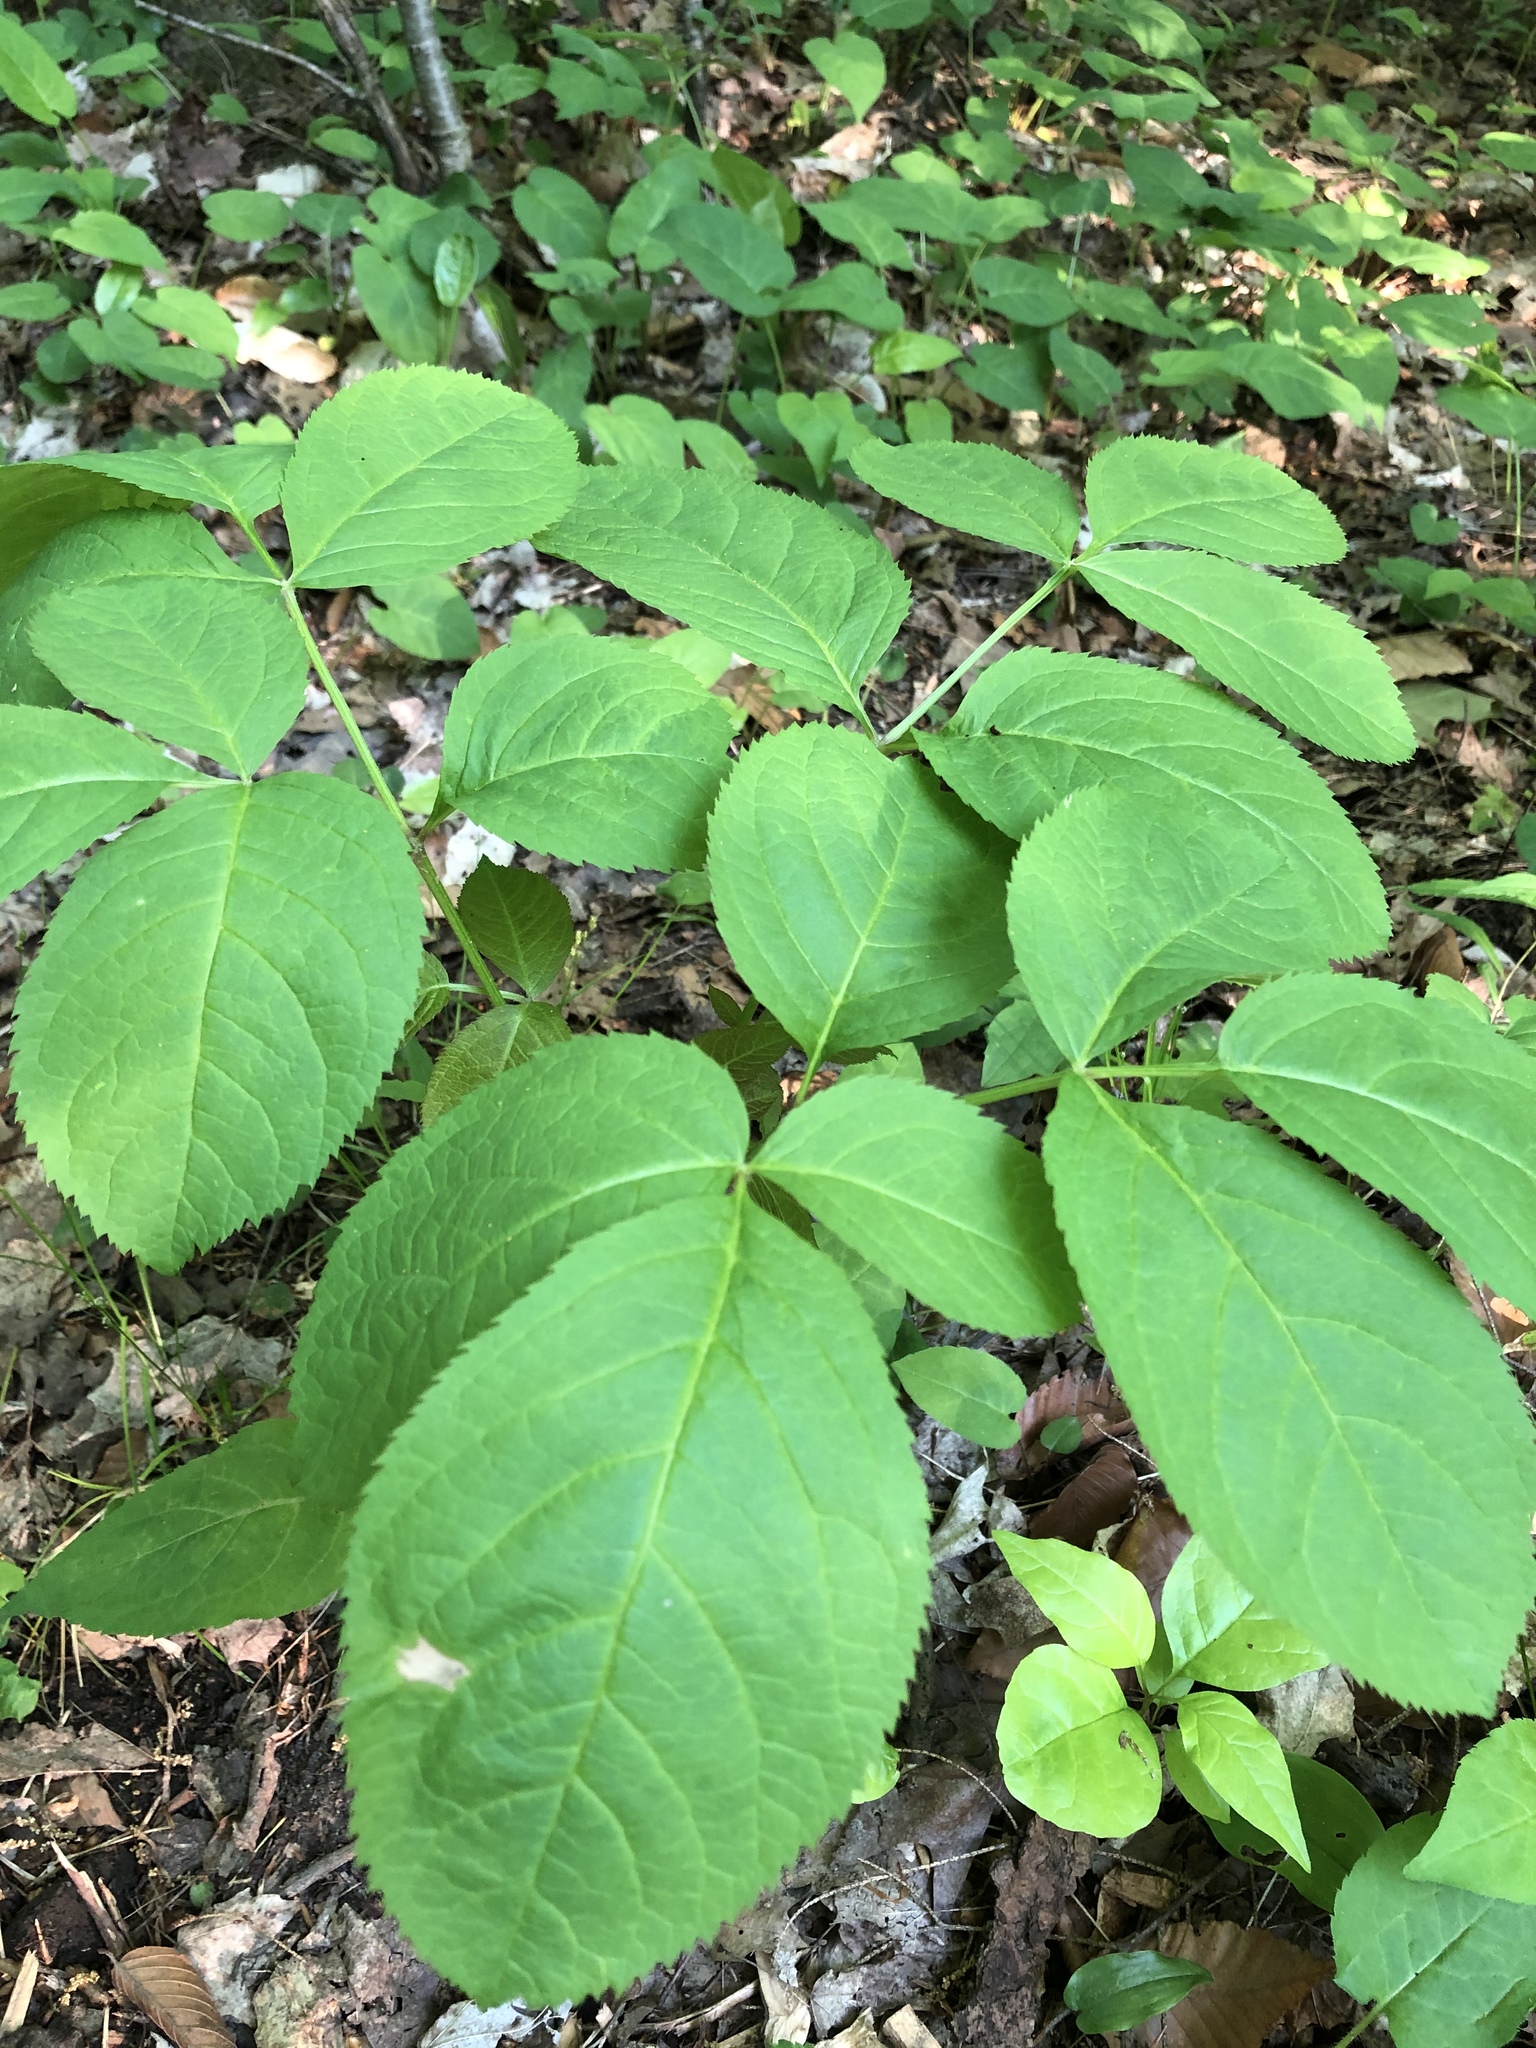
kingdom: Plantae
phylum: Tracheophyta
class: Magnoliopsida
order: Apiales
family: Araliaceae
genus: Aralia
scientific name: Aralia nudicaulis
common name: Wild sarsaparilla
